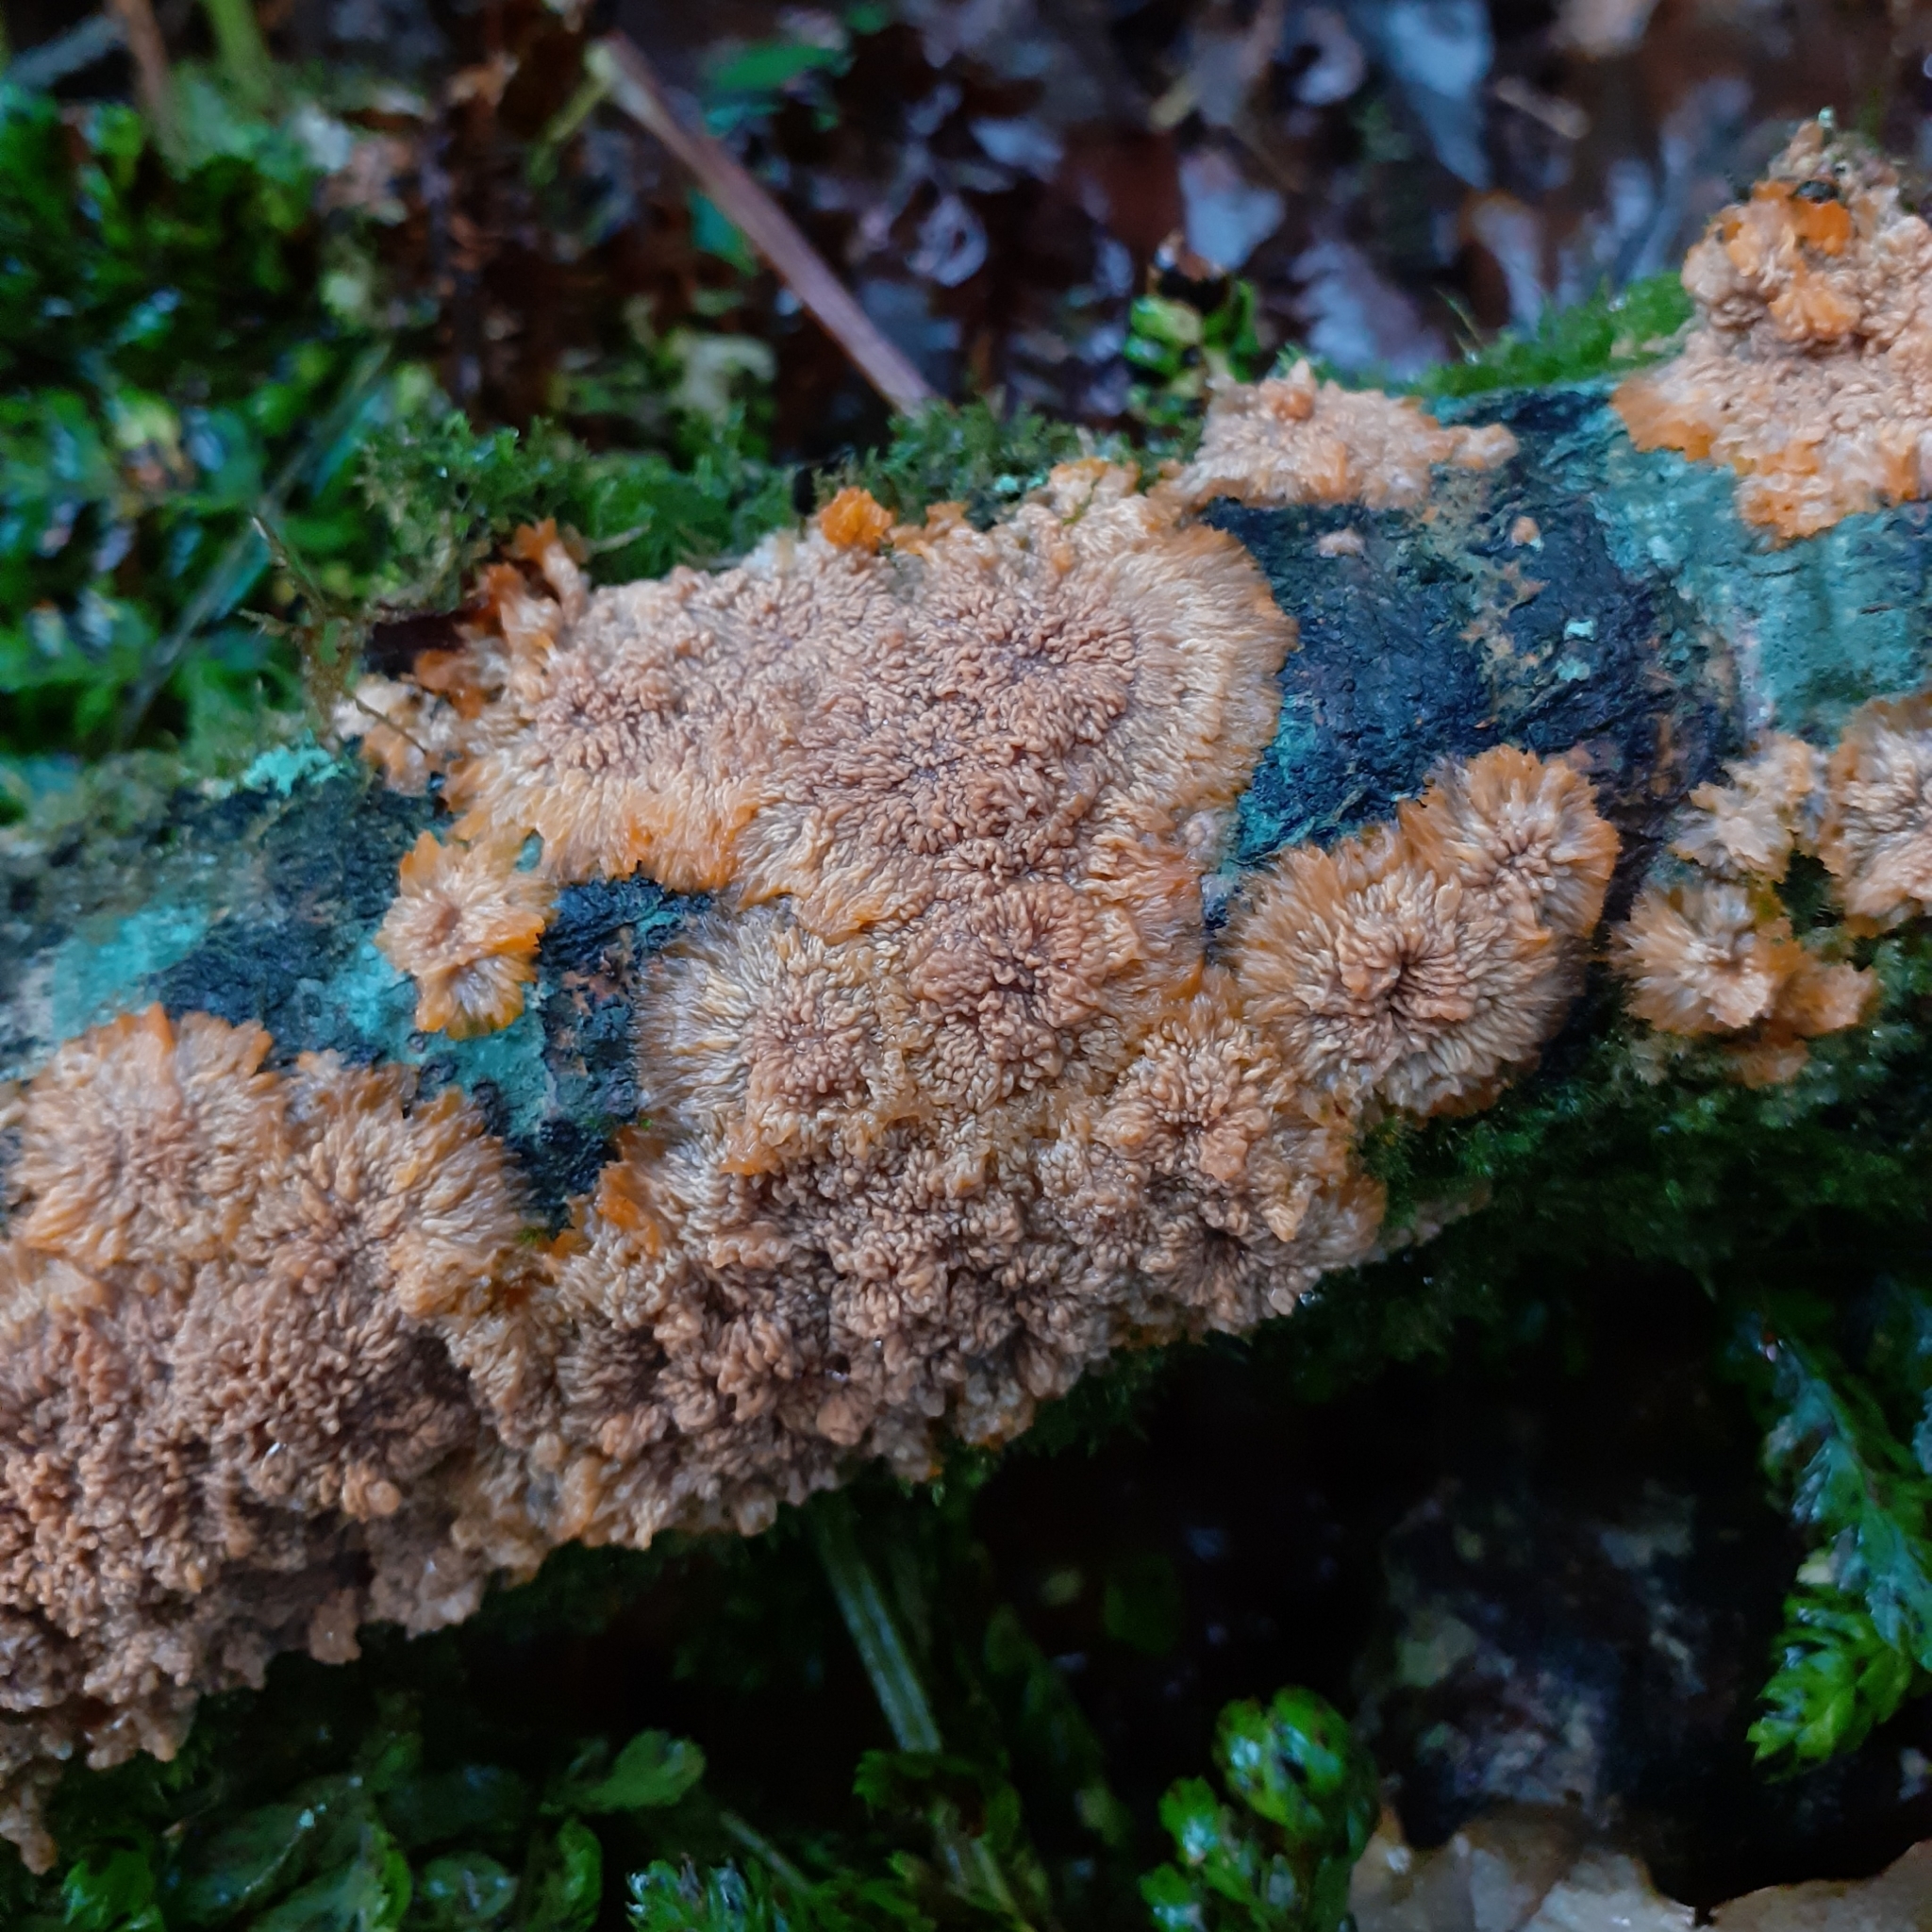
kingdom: Fungi
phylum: Basidiomycota
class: Agaricomycetes
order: Polyporales
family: Meruliaceae
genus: Phlebia
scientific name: Phlebia radiata
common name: Wrinkled crust
